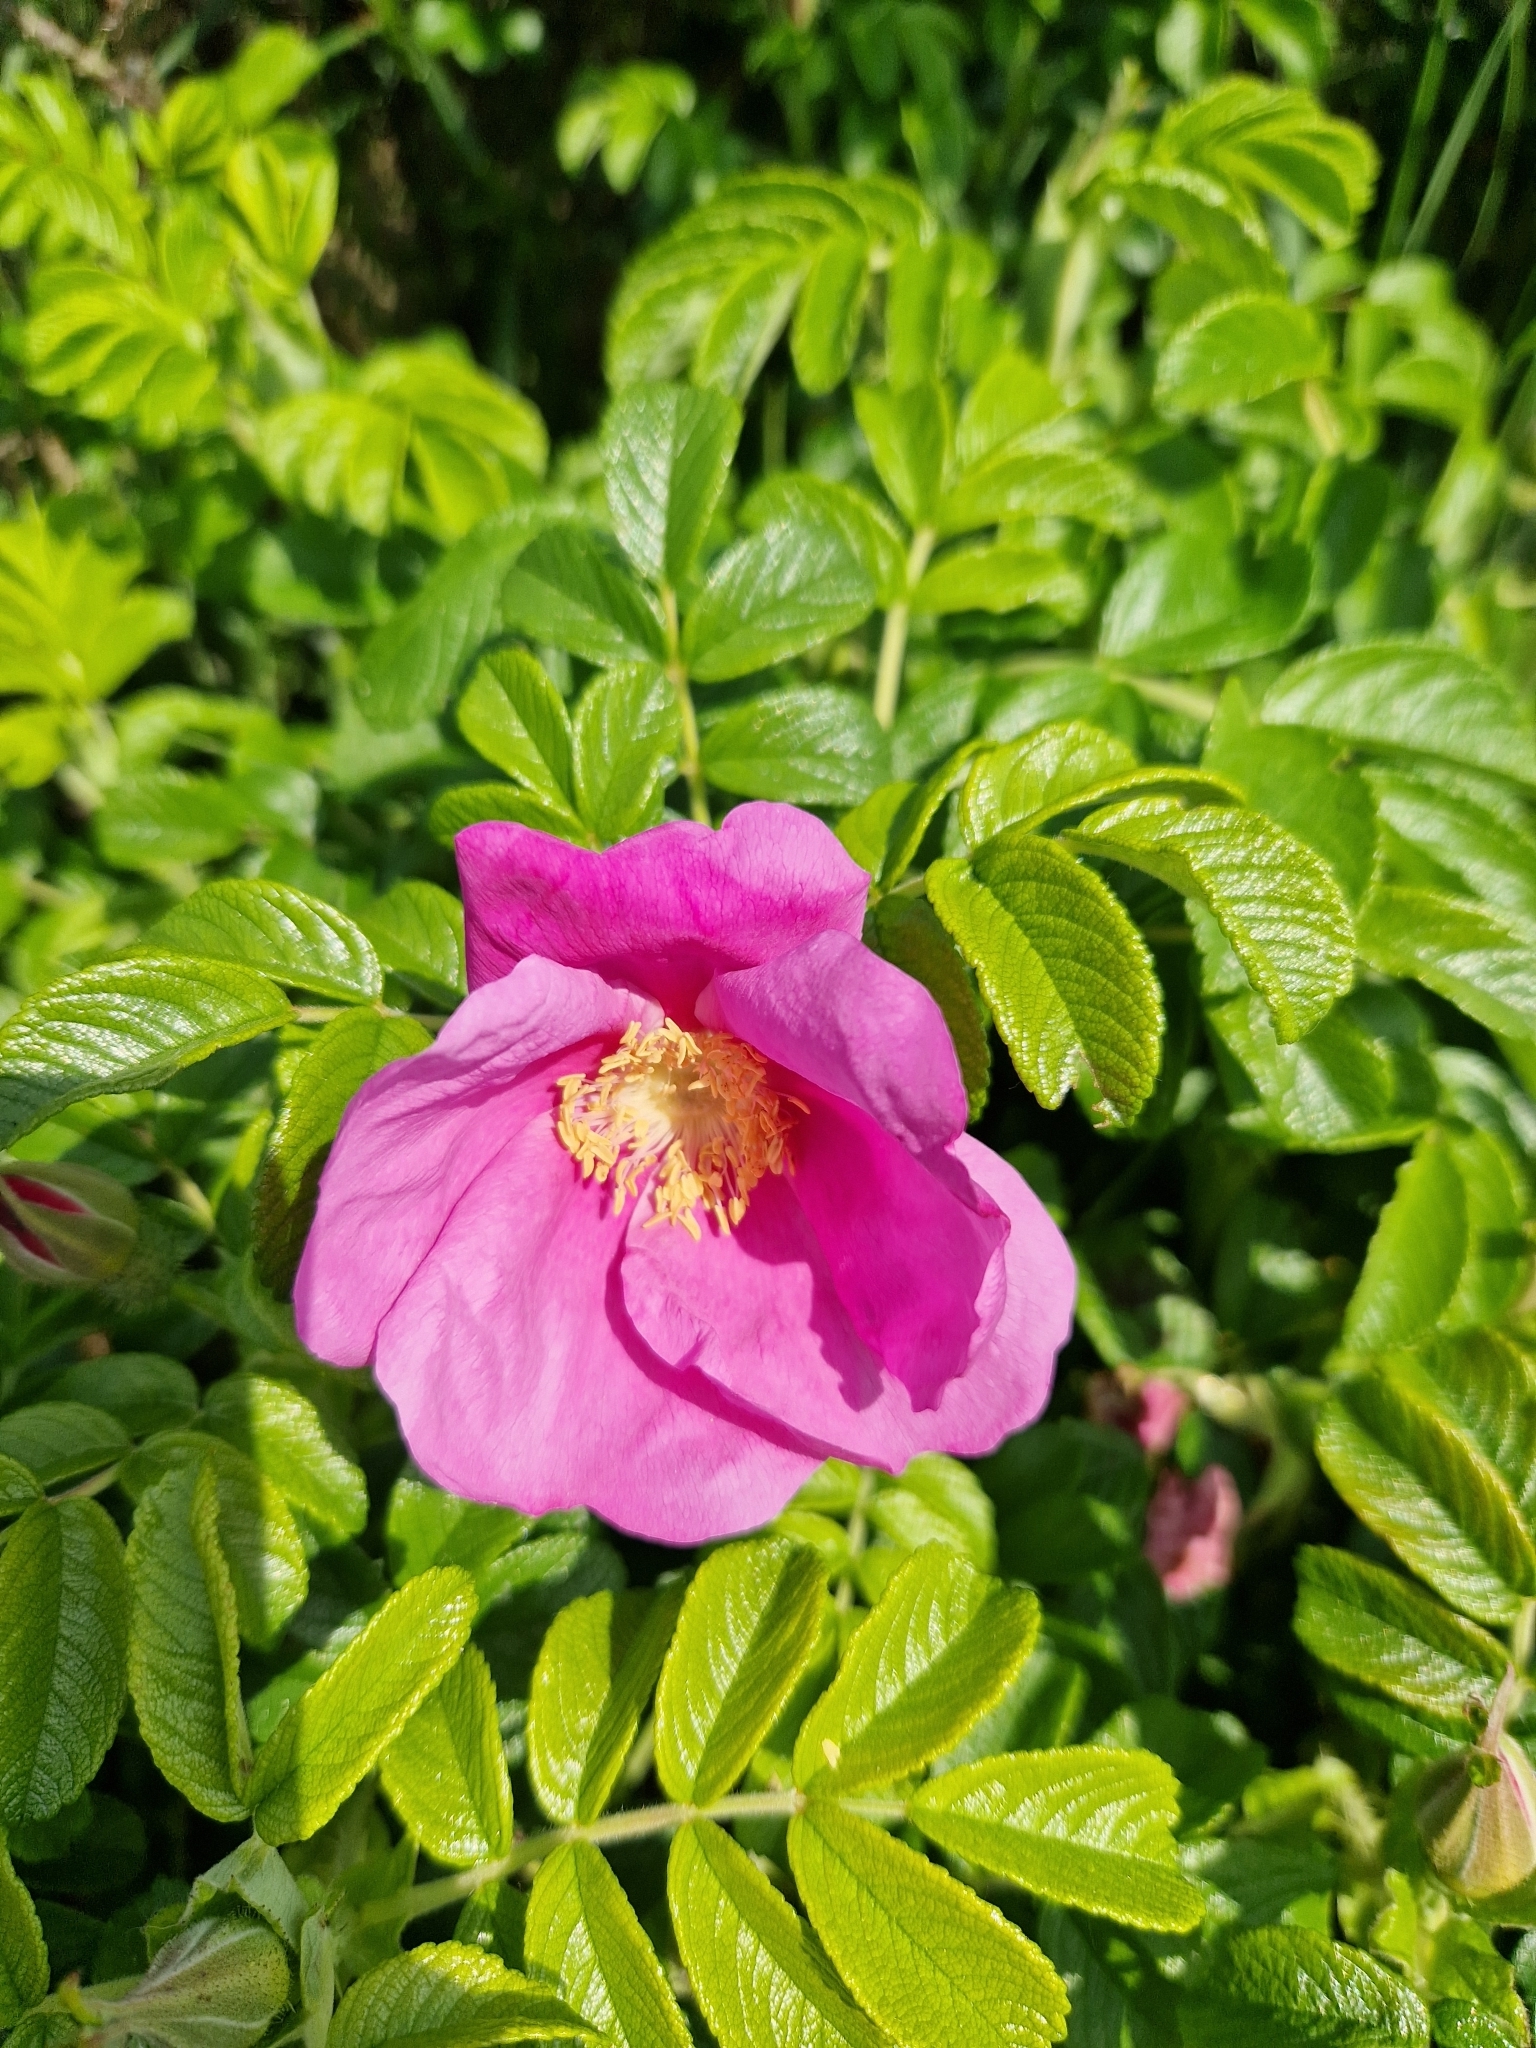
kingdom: Plantae
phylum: Tracheophyta
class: Magnoliopsida
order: Rosales
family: Rosaceae
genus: Rosa
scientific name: Rosa rugosa
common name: Japanese rose
